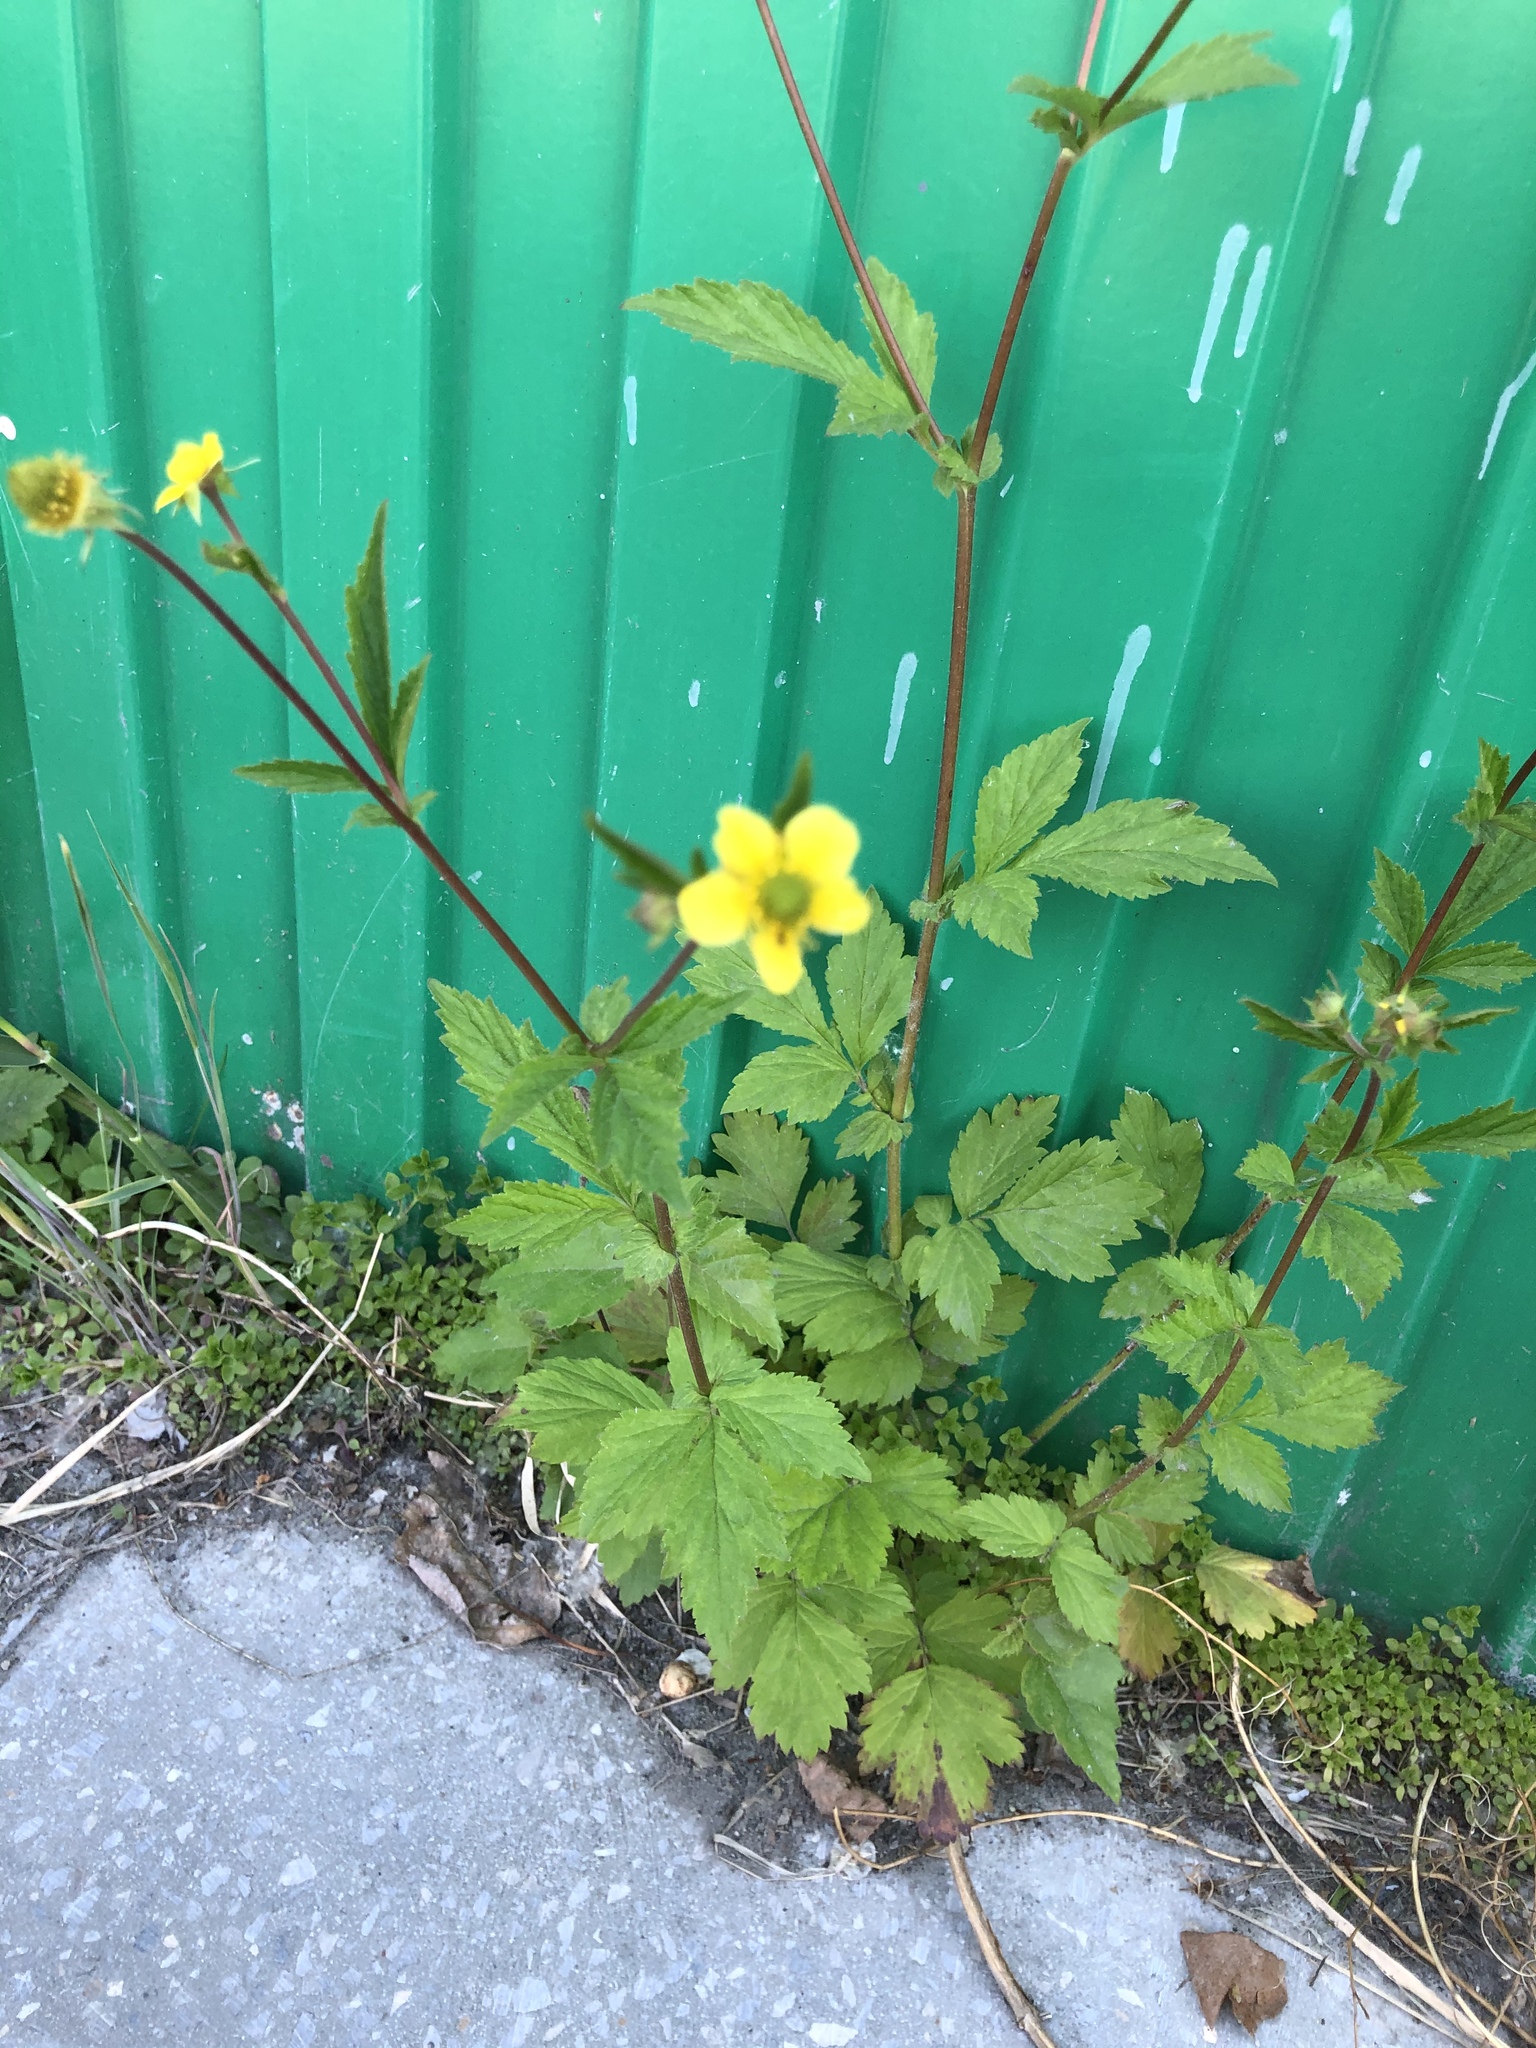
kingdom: Plantae
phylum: Tracheophyta
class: Magnoliopsida
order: Rosales
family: Rosaceae
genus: Geum
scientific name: Geum aleppicum
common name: Yellow avens
